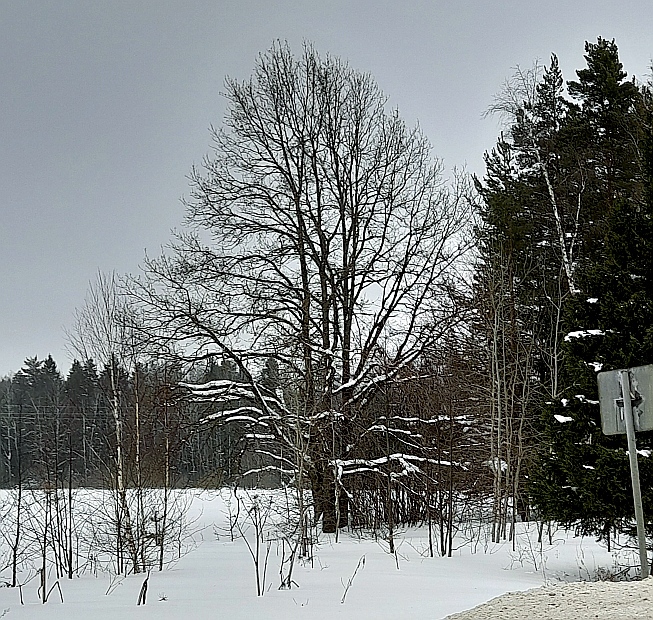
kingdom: Plantae
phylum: Tracheophyta
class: Magnoliopsida
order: Fagales
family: Fagaceae
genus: Quercus
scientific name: Quercus robur
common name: Pedunculate oak
